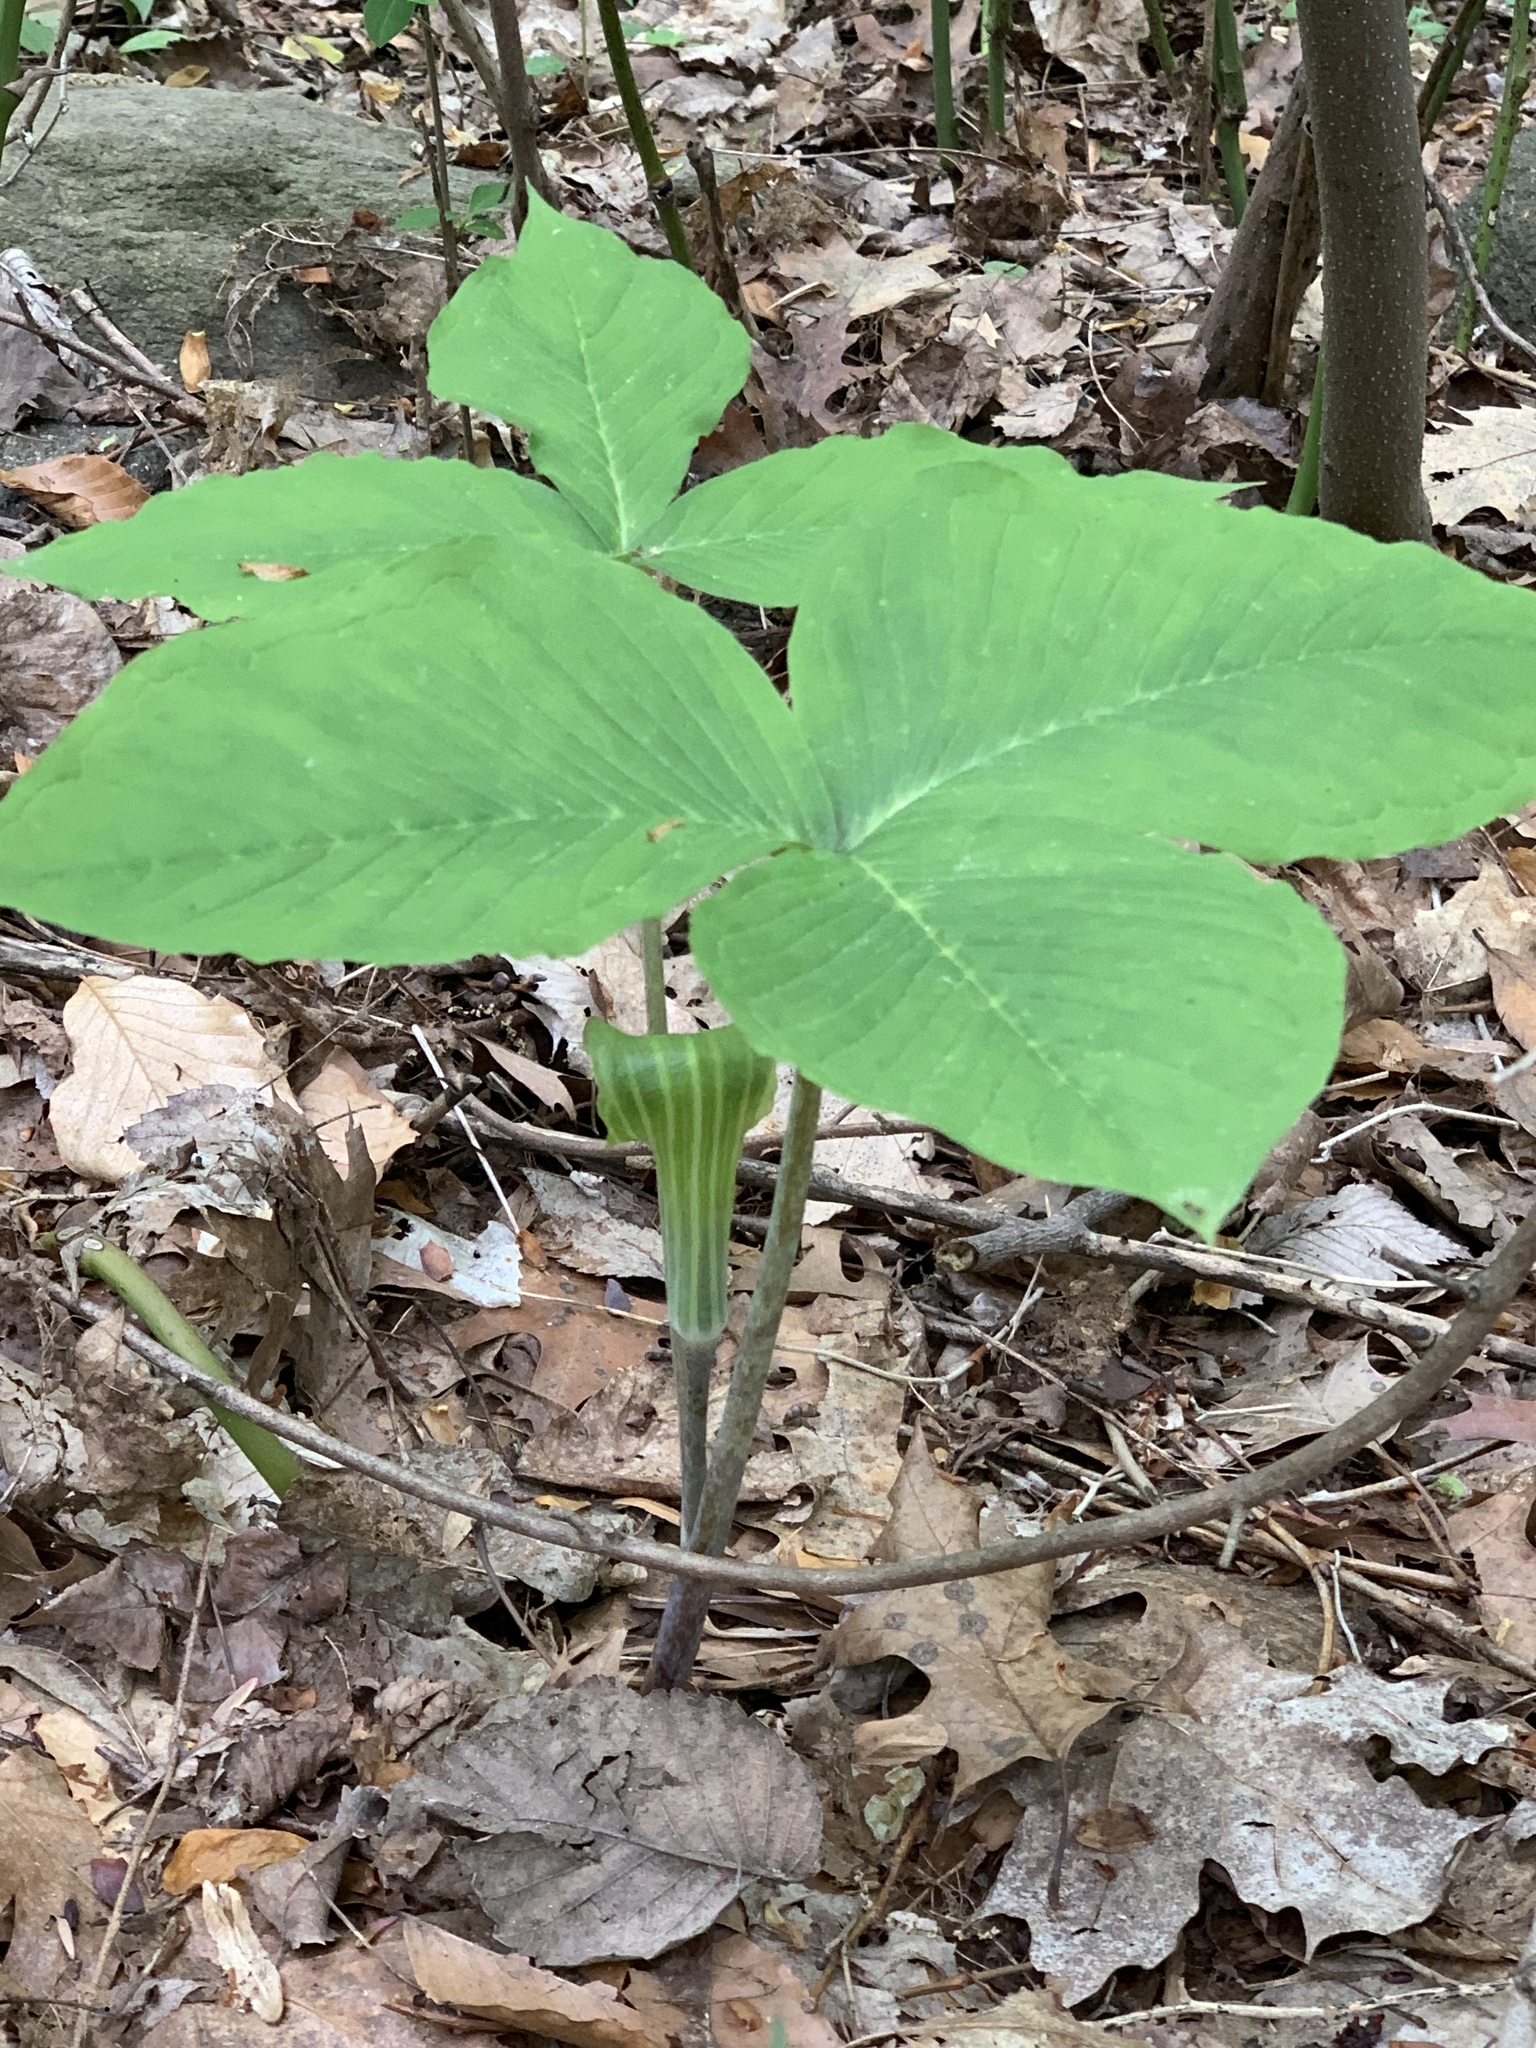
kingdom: Plantae
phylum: Tracheophyta
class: Liliopsida
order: Alismatales
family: Araceae
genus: Arisaema
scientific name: Arisaema triphyllum
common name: Jack-in-the-pulpit
